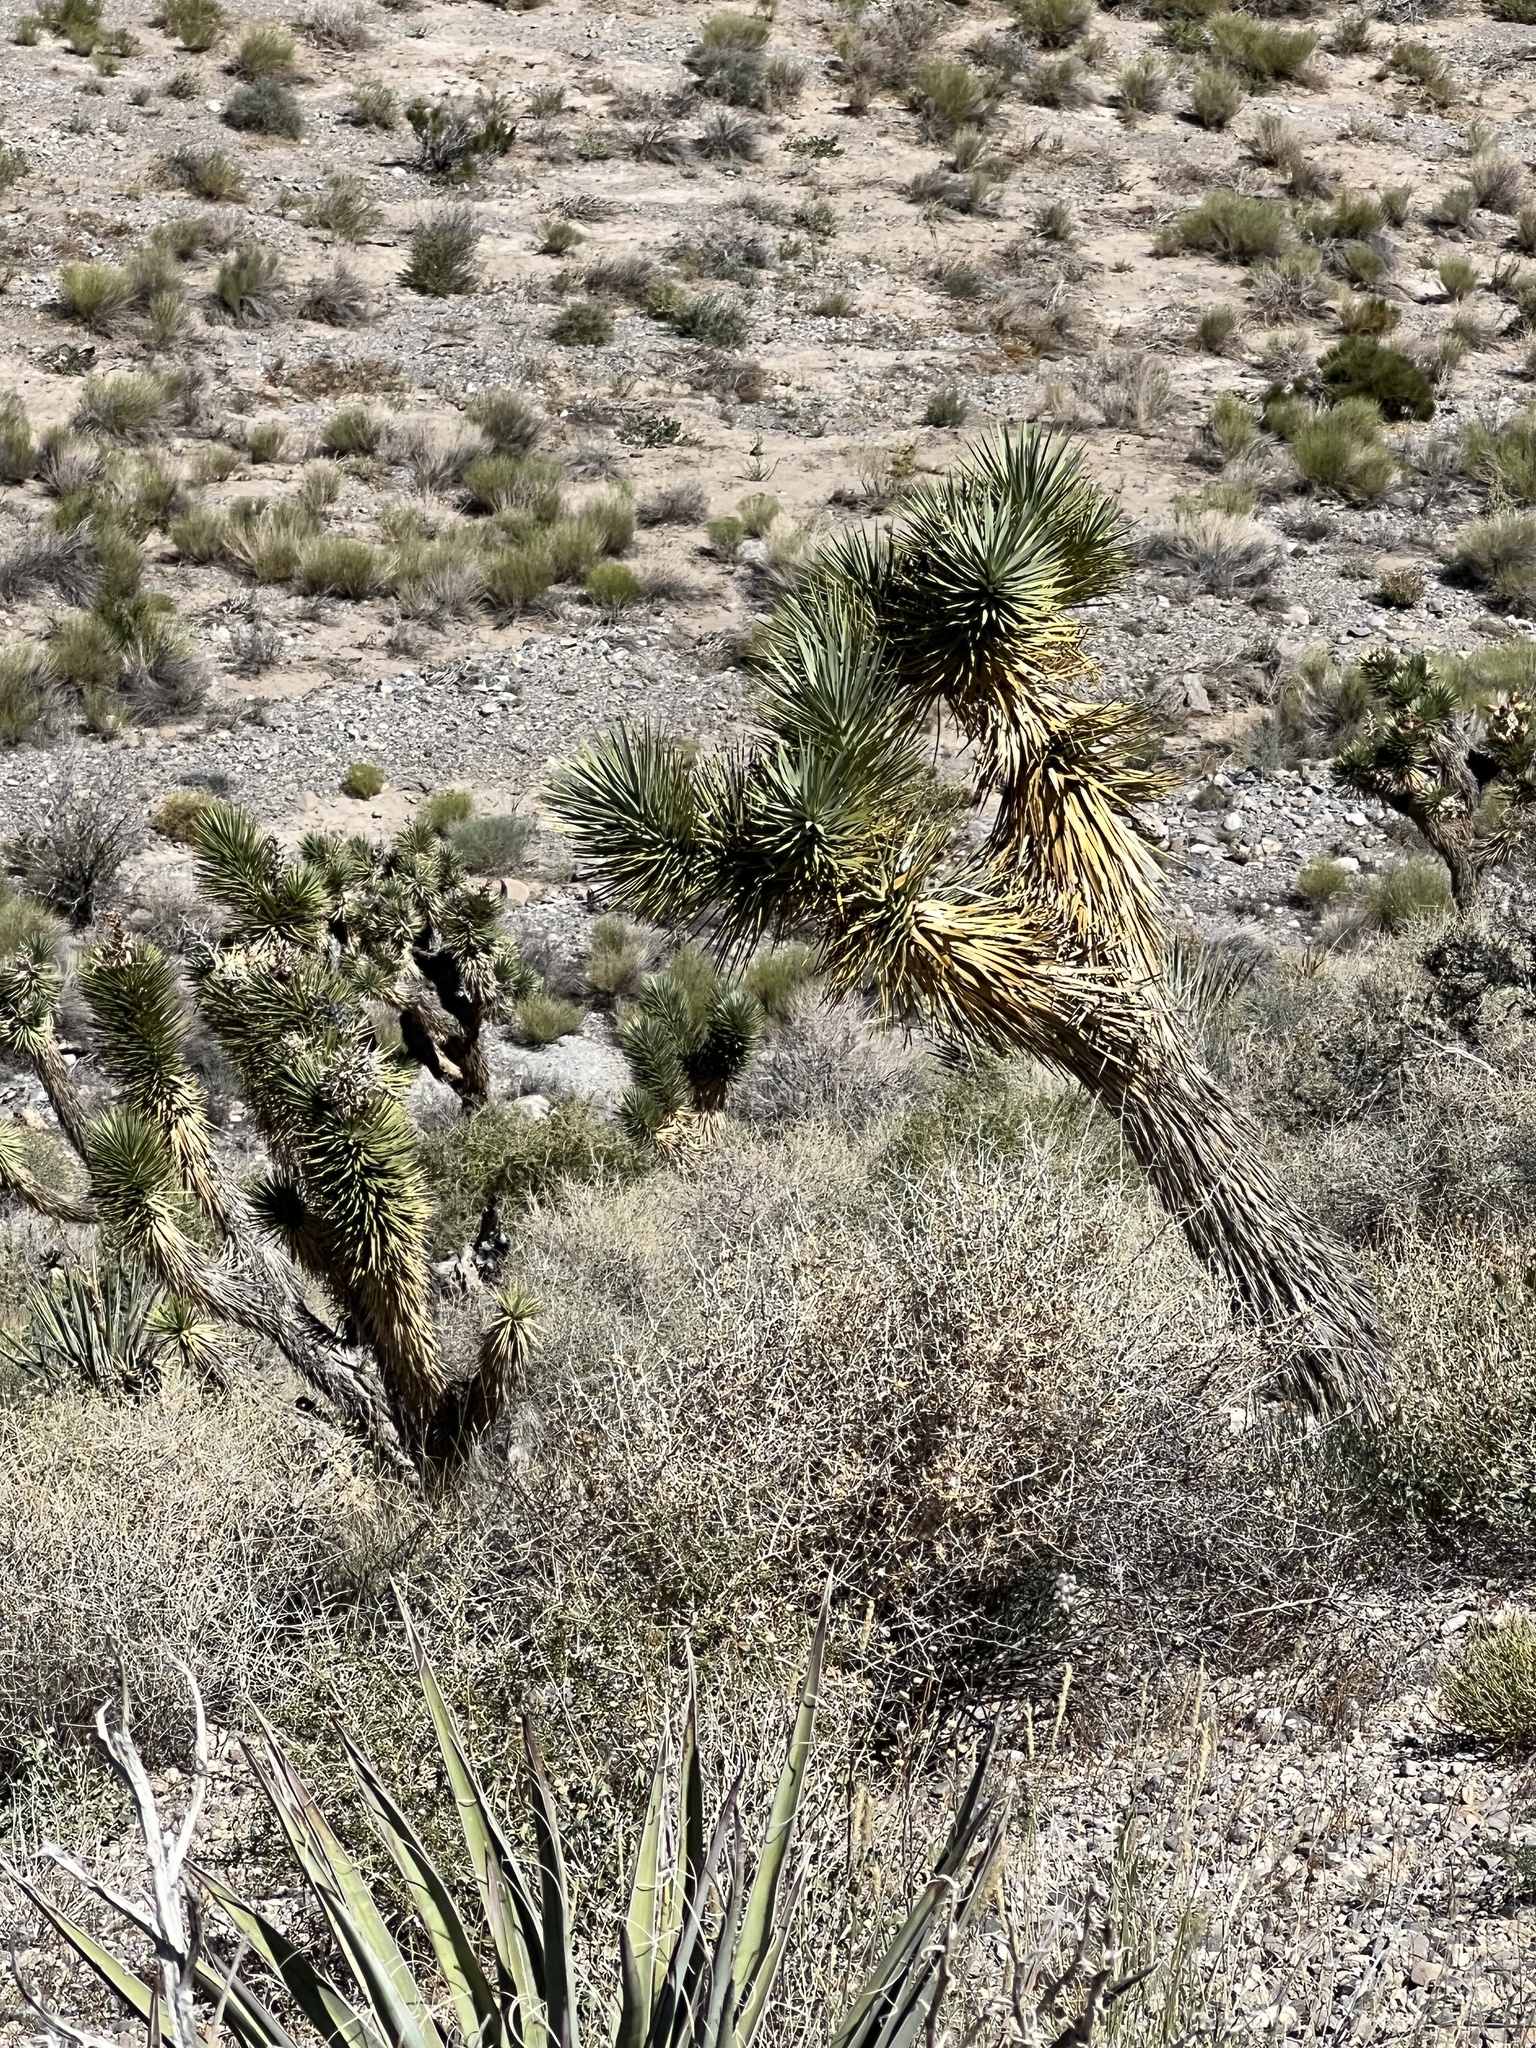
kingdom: Plantae
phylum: Tracheophyta
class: Liliopsida
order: Asparagales
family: Asparagaceae
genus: Yucca
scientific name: Yucca brevifolia
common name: Joshua tree
